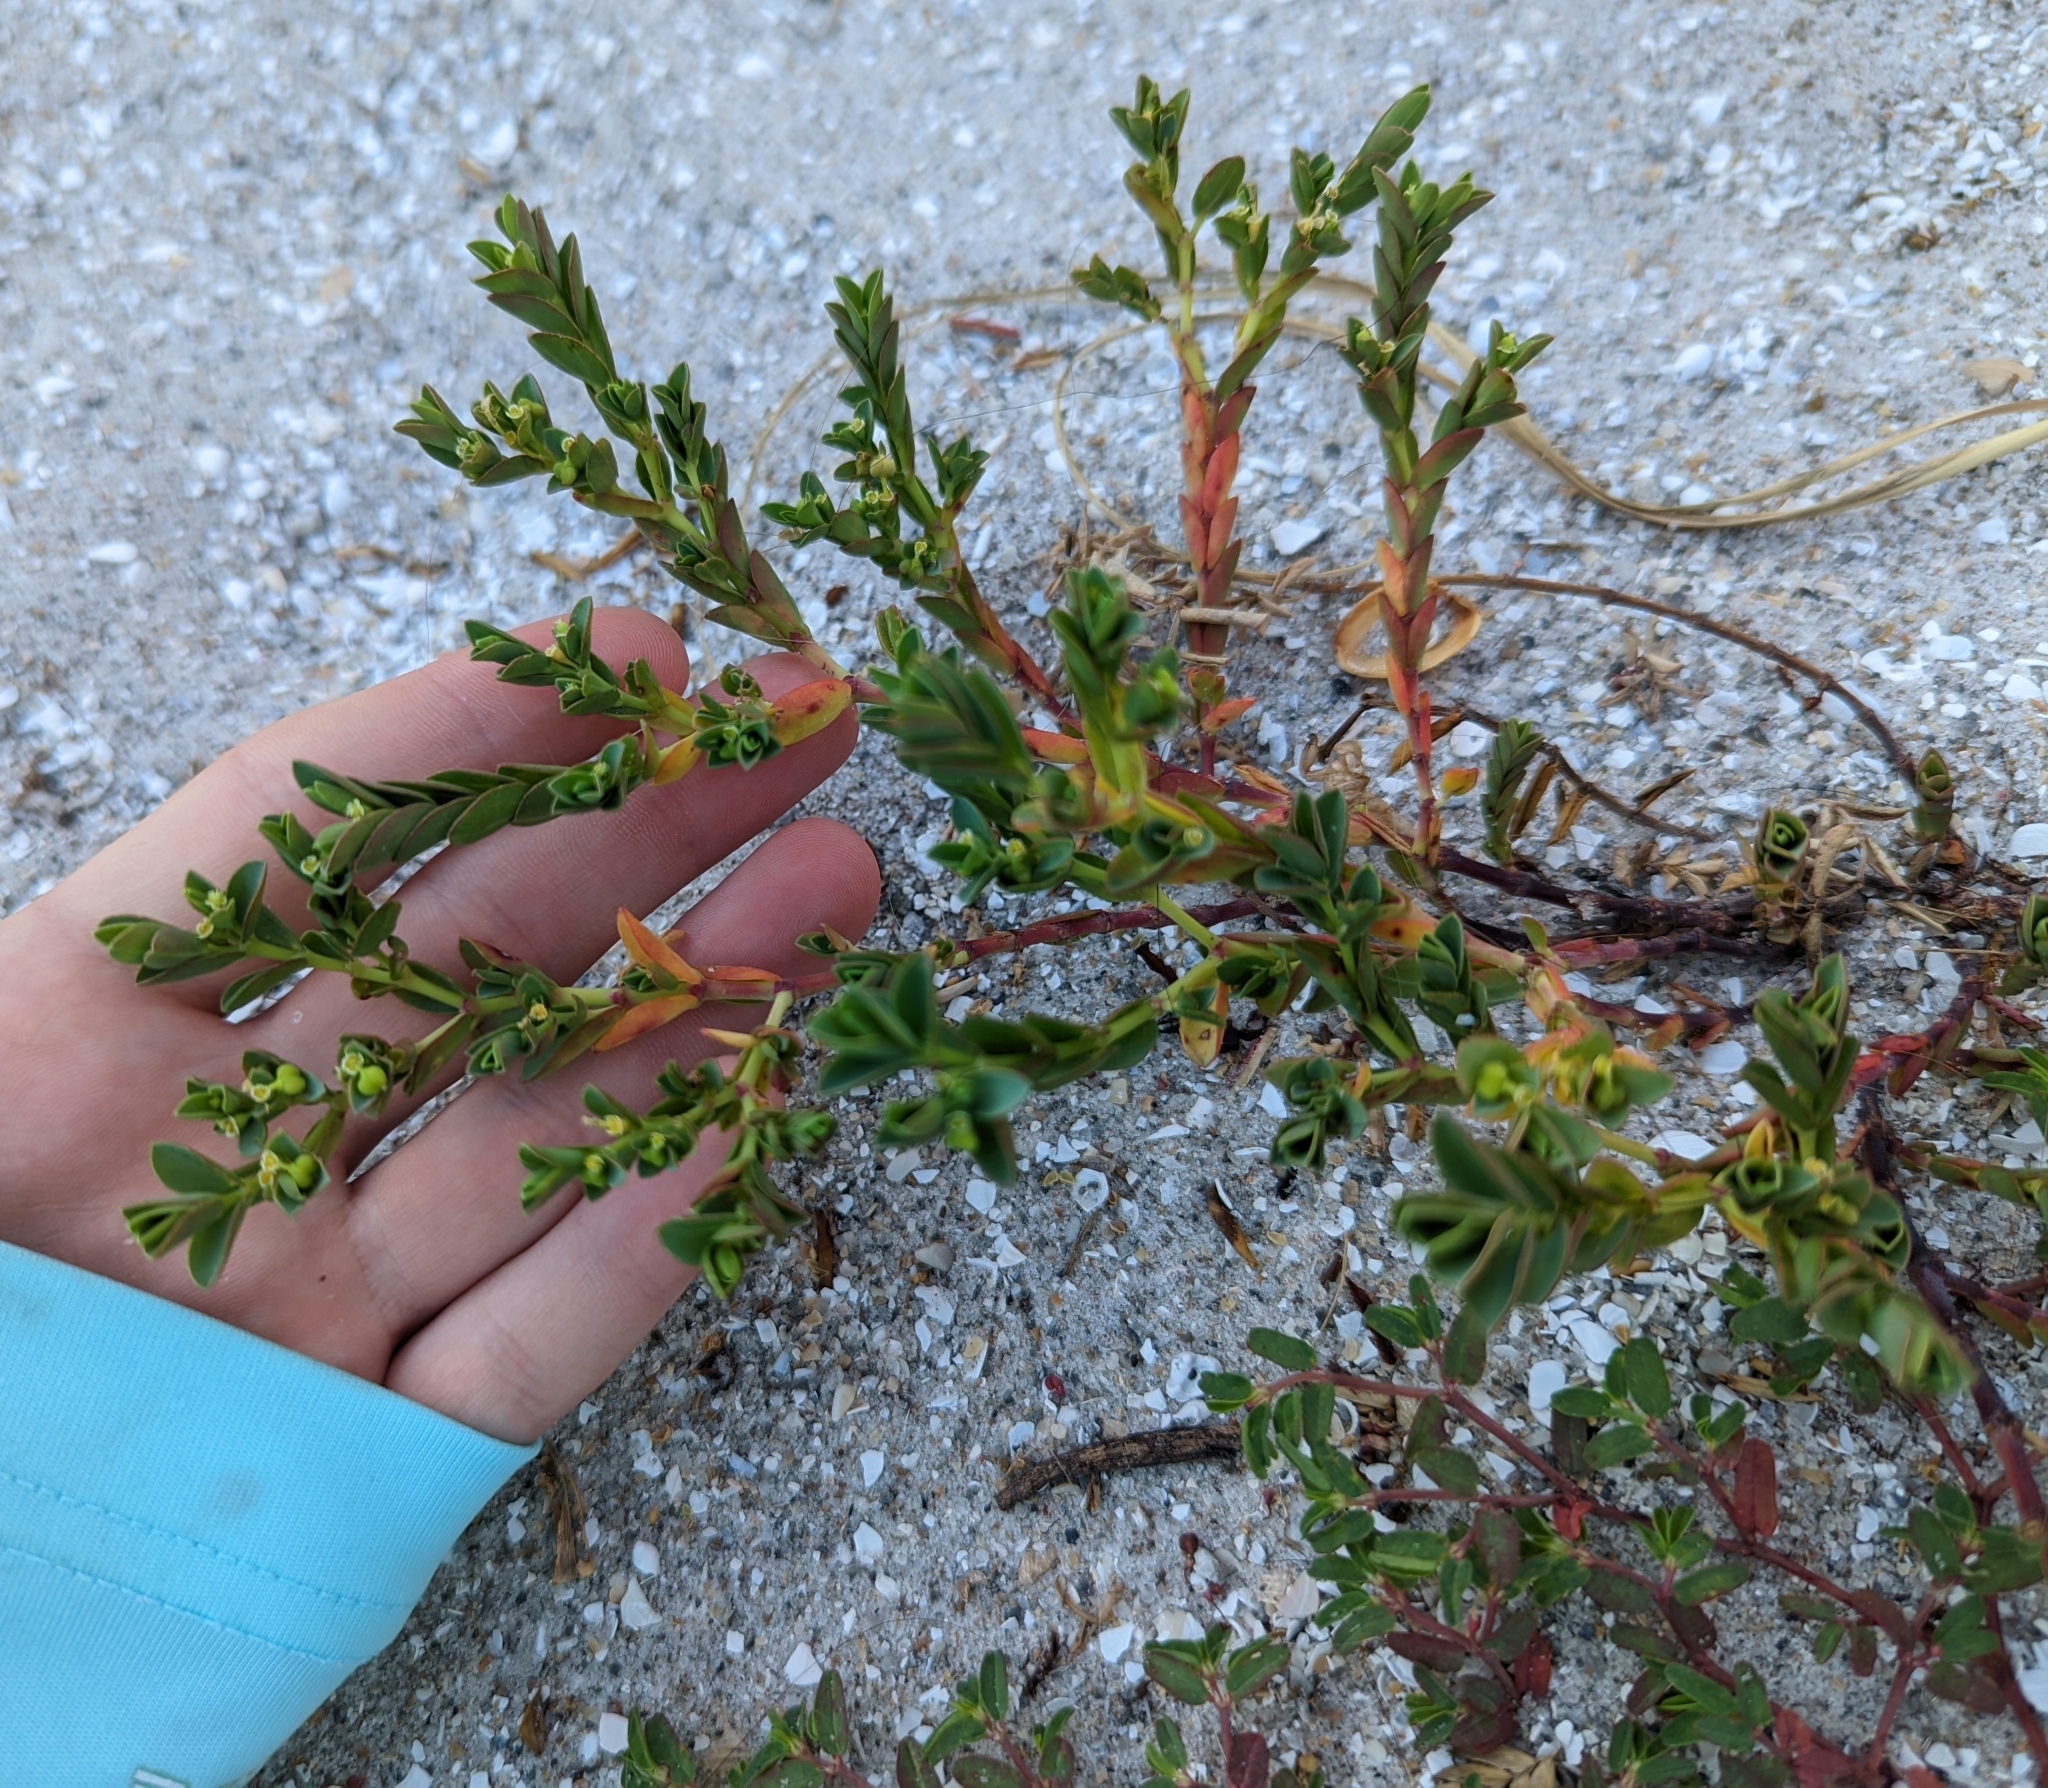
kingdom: Plantae
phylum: Tracheophyta
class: Magnoliopsida
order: Malpighiales
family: Euphorbiaceae
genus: Euphorbia
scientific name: Euphorbia mesembryanthemifolia
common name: Coastal beach sandmat
